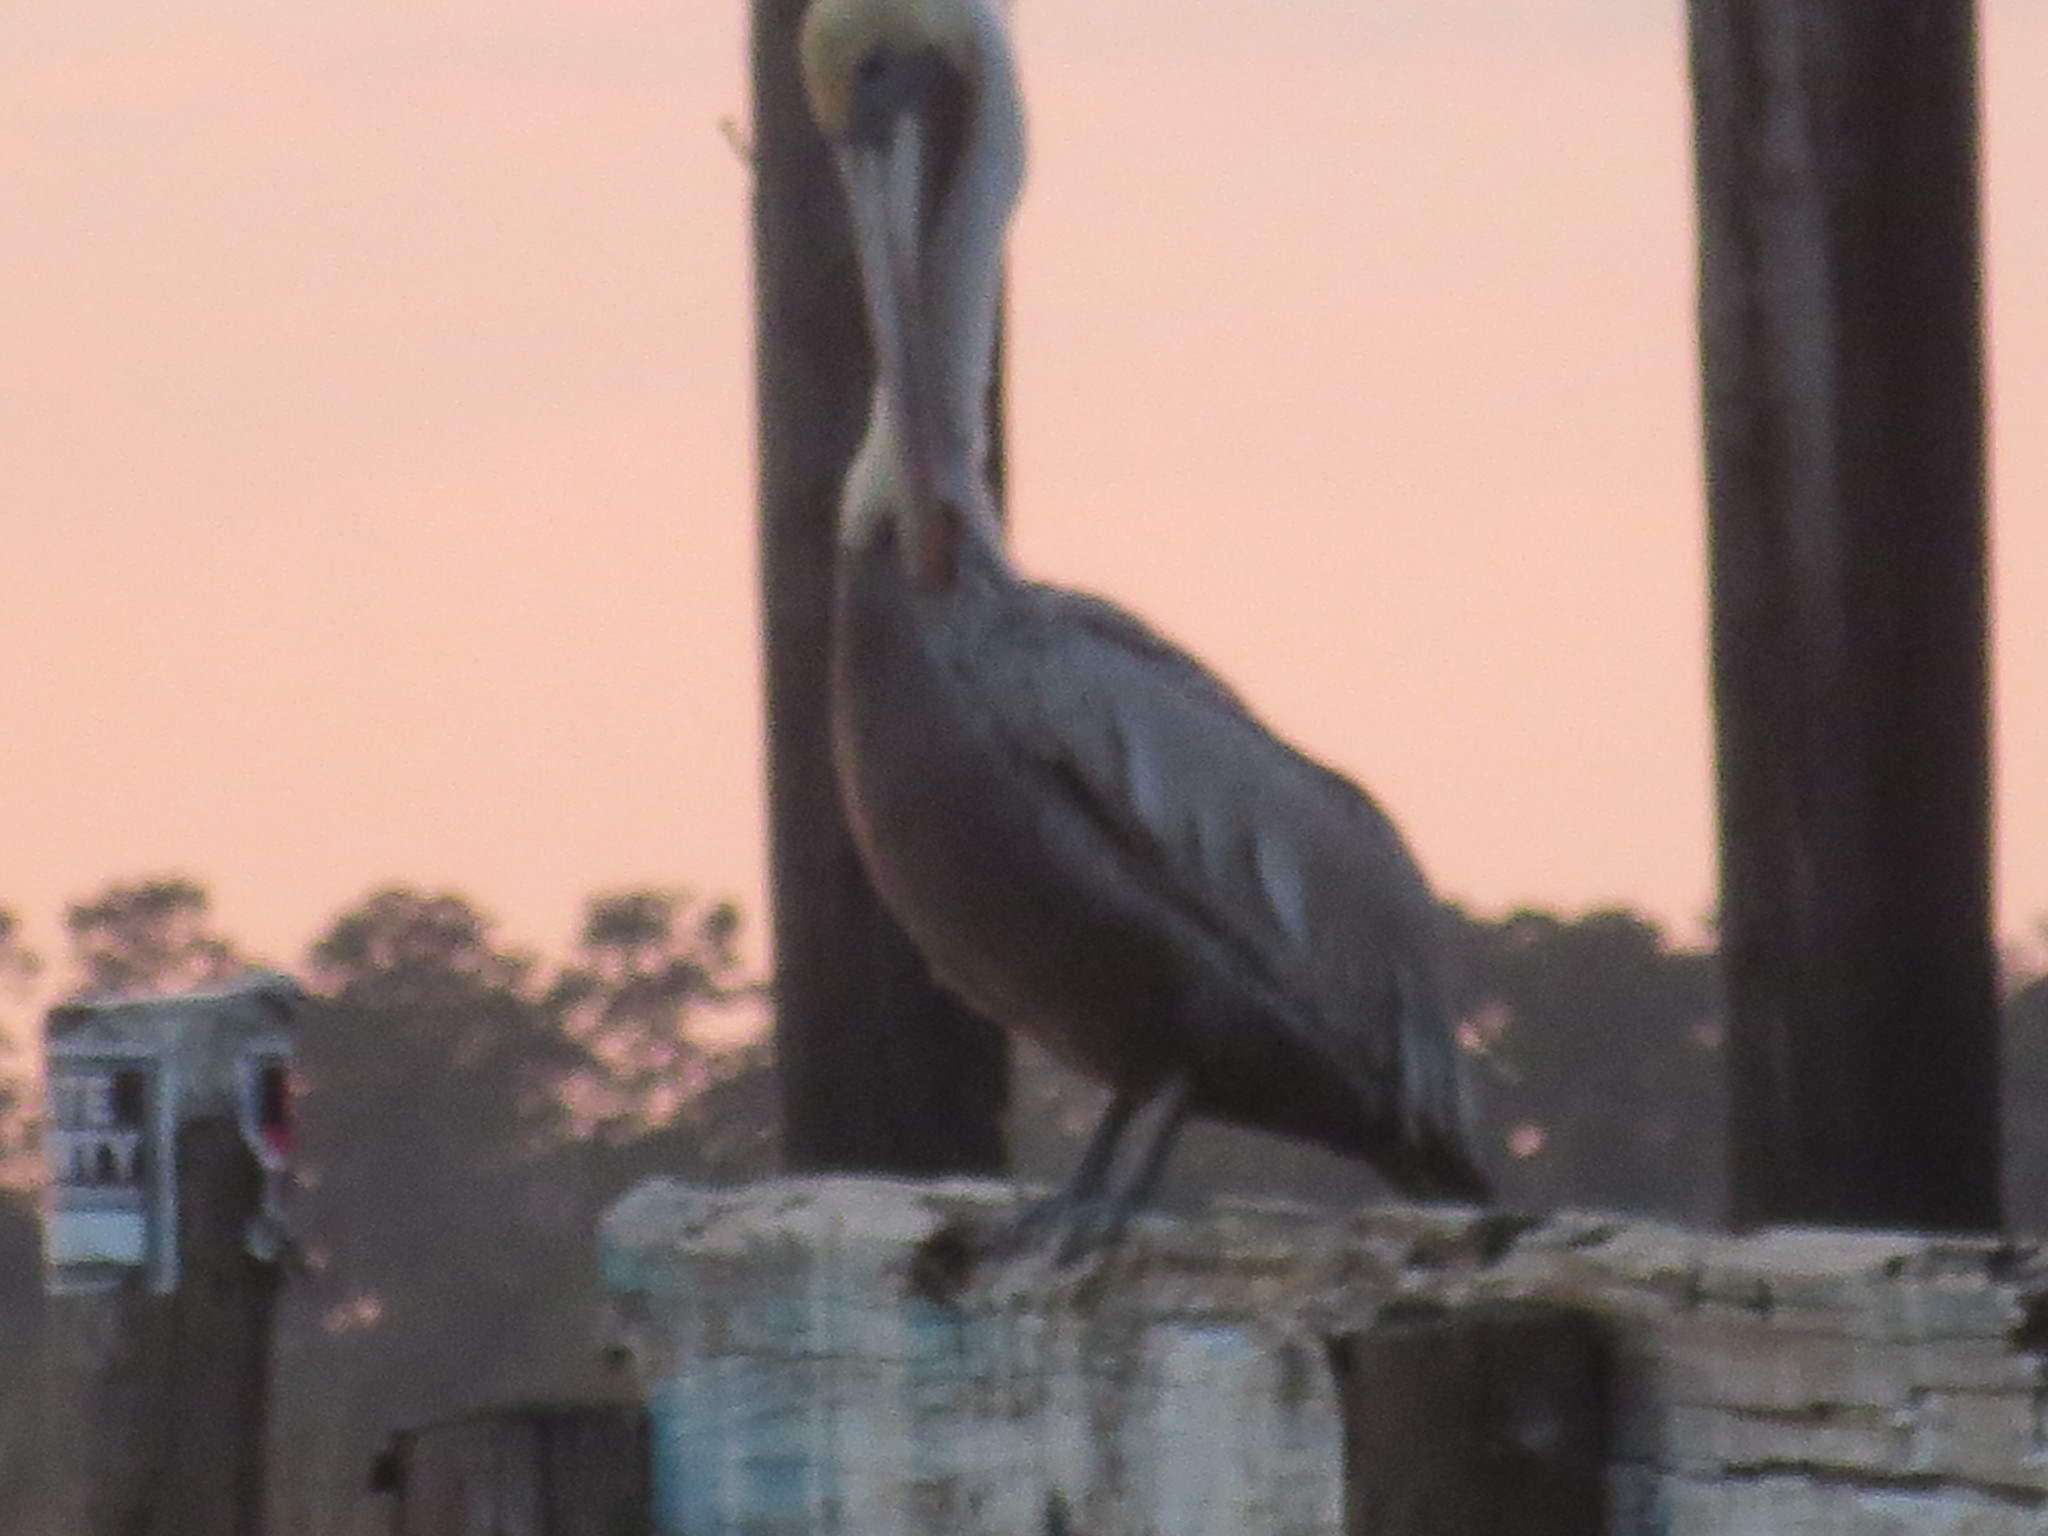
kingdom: Animalia
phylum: Chordata
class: Aves
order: Pelecaniformes
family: Pelecanidae
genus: Pelecanus
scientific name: Pelecanus occidentalis
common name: Brown pelican
